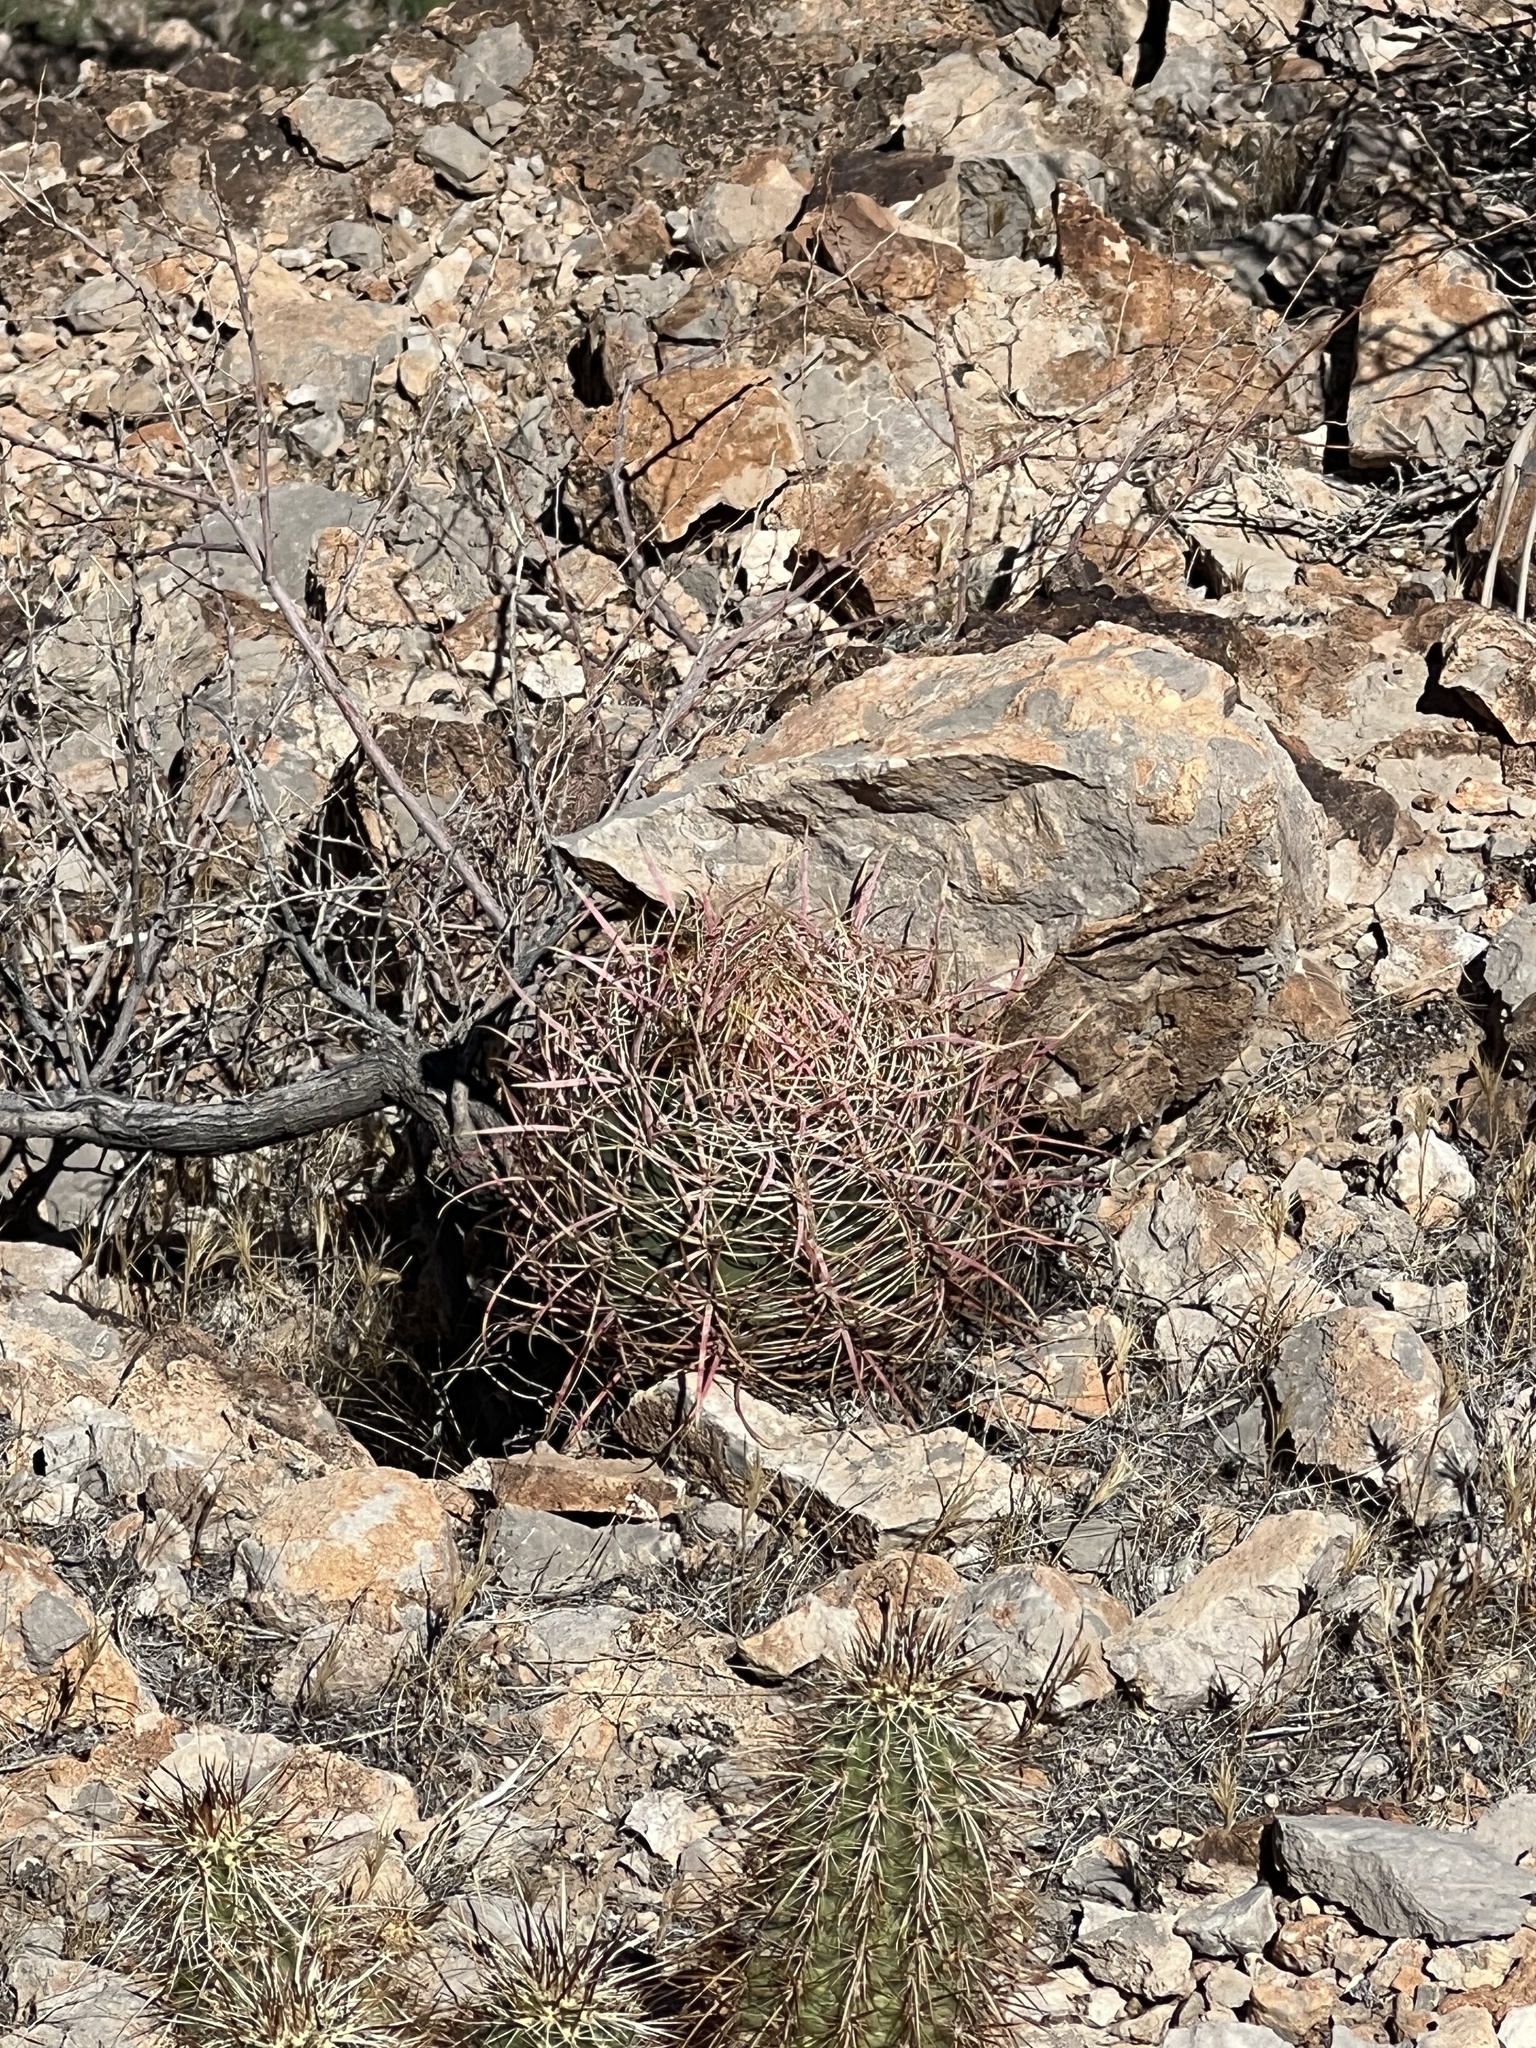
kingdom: Plantae
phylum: Tracheophyta
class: Magnoliopsida
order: Caryophyllales
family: Cactaceae
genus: Ferocactus
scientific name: Ferocactus cylindraceus
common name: California barrel cactus
